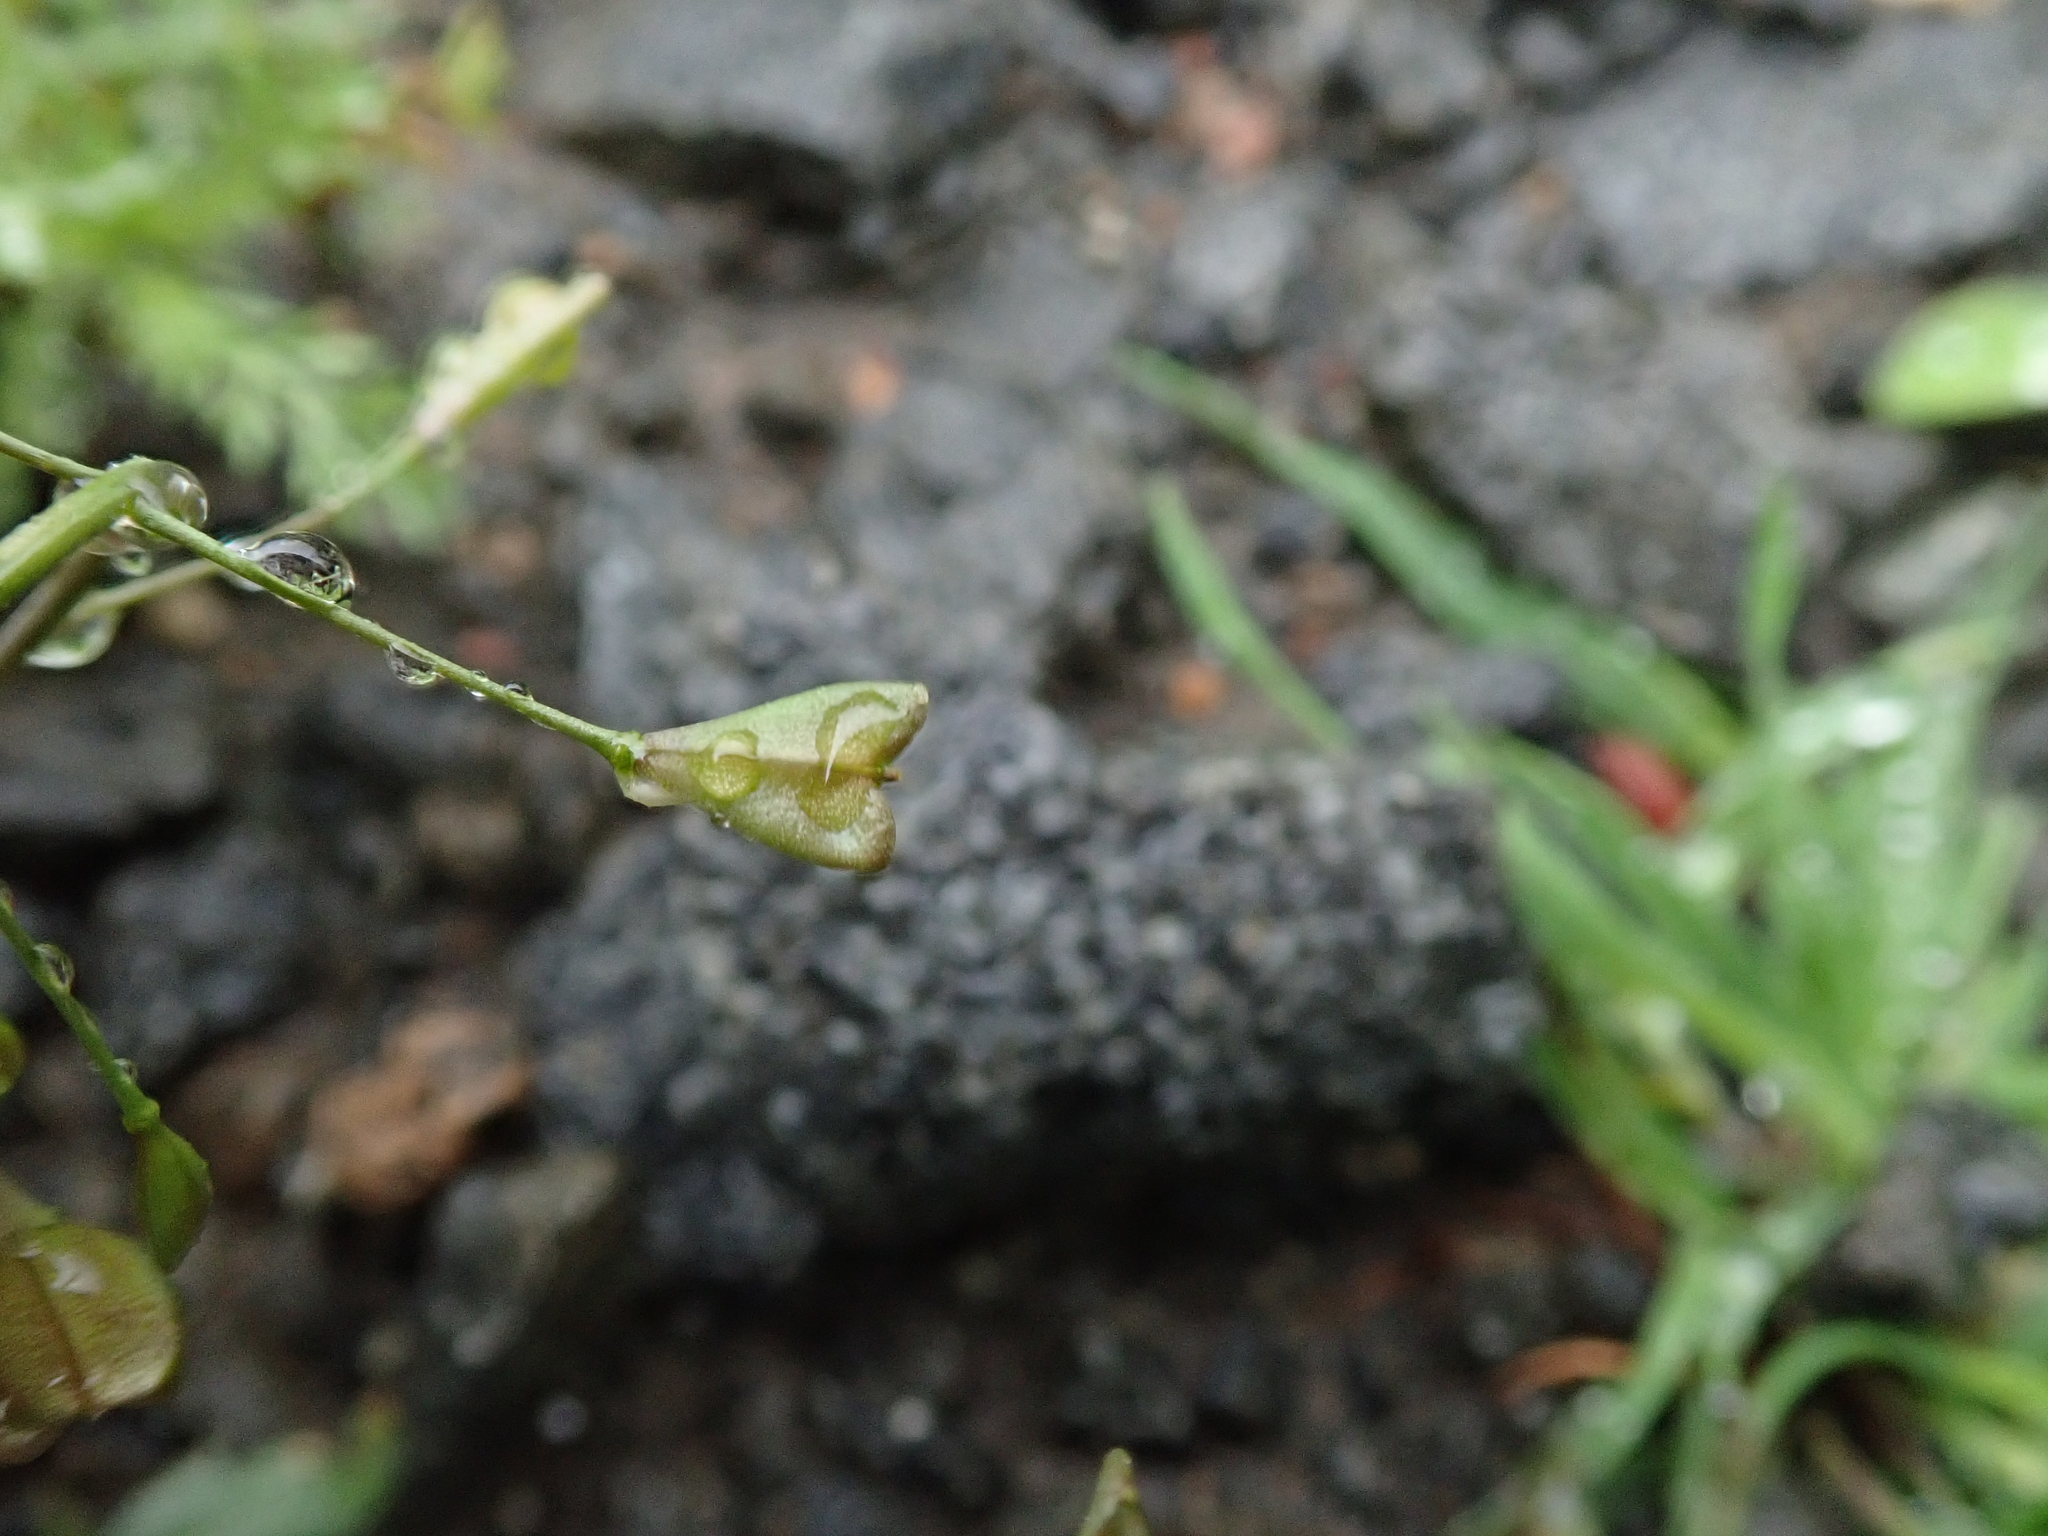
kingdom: Plantae
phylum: Tracheophyta
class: Magnoliopsida
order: Brassicales
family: Brassicaceae
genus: Capsella
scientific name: Capsella bursa-pastoris
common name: Shepherd's purse
